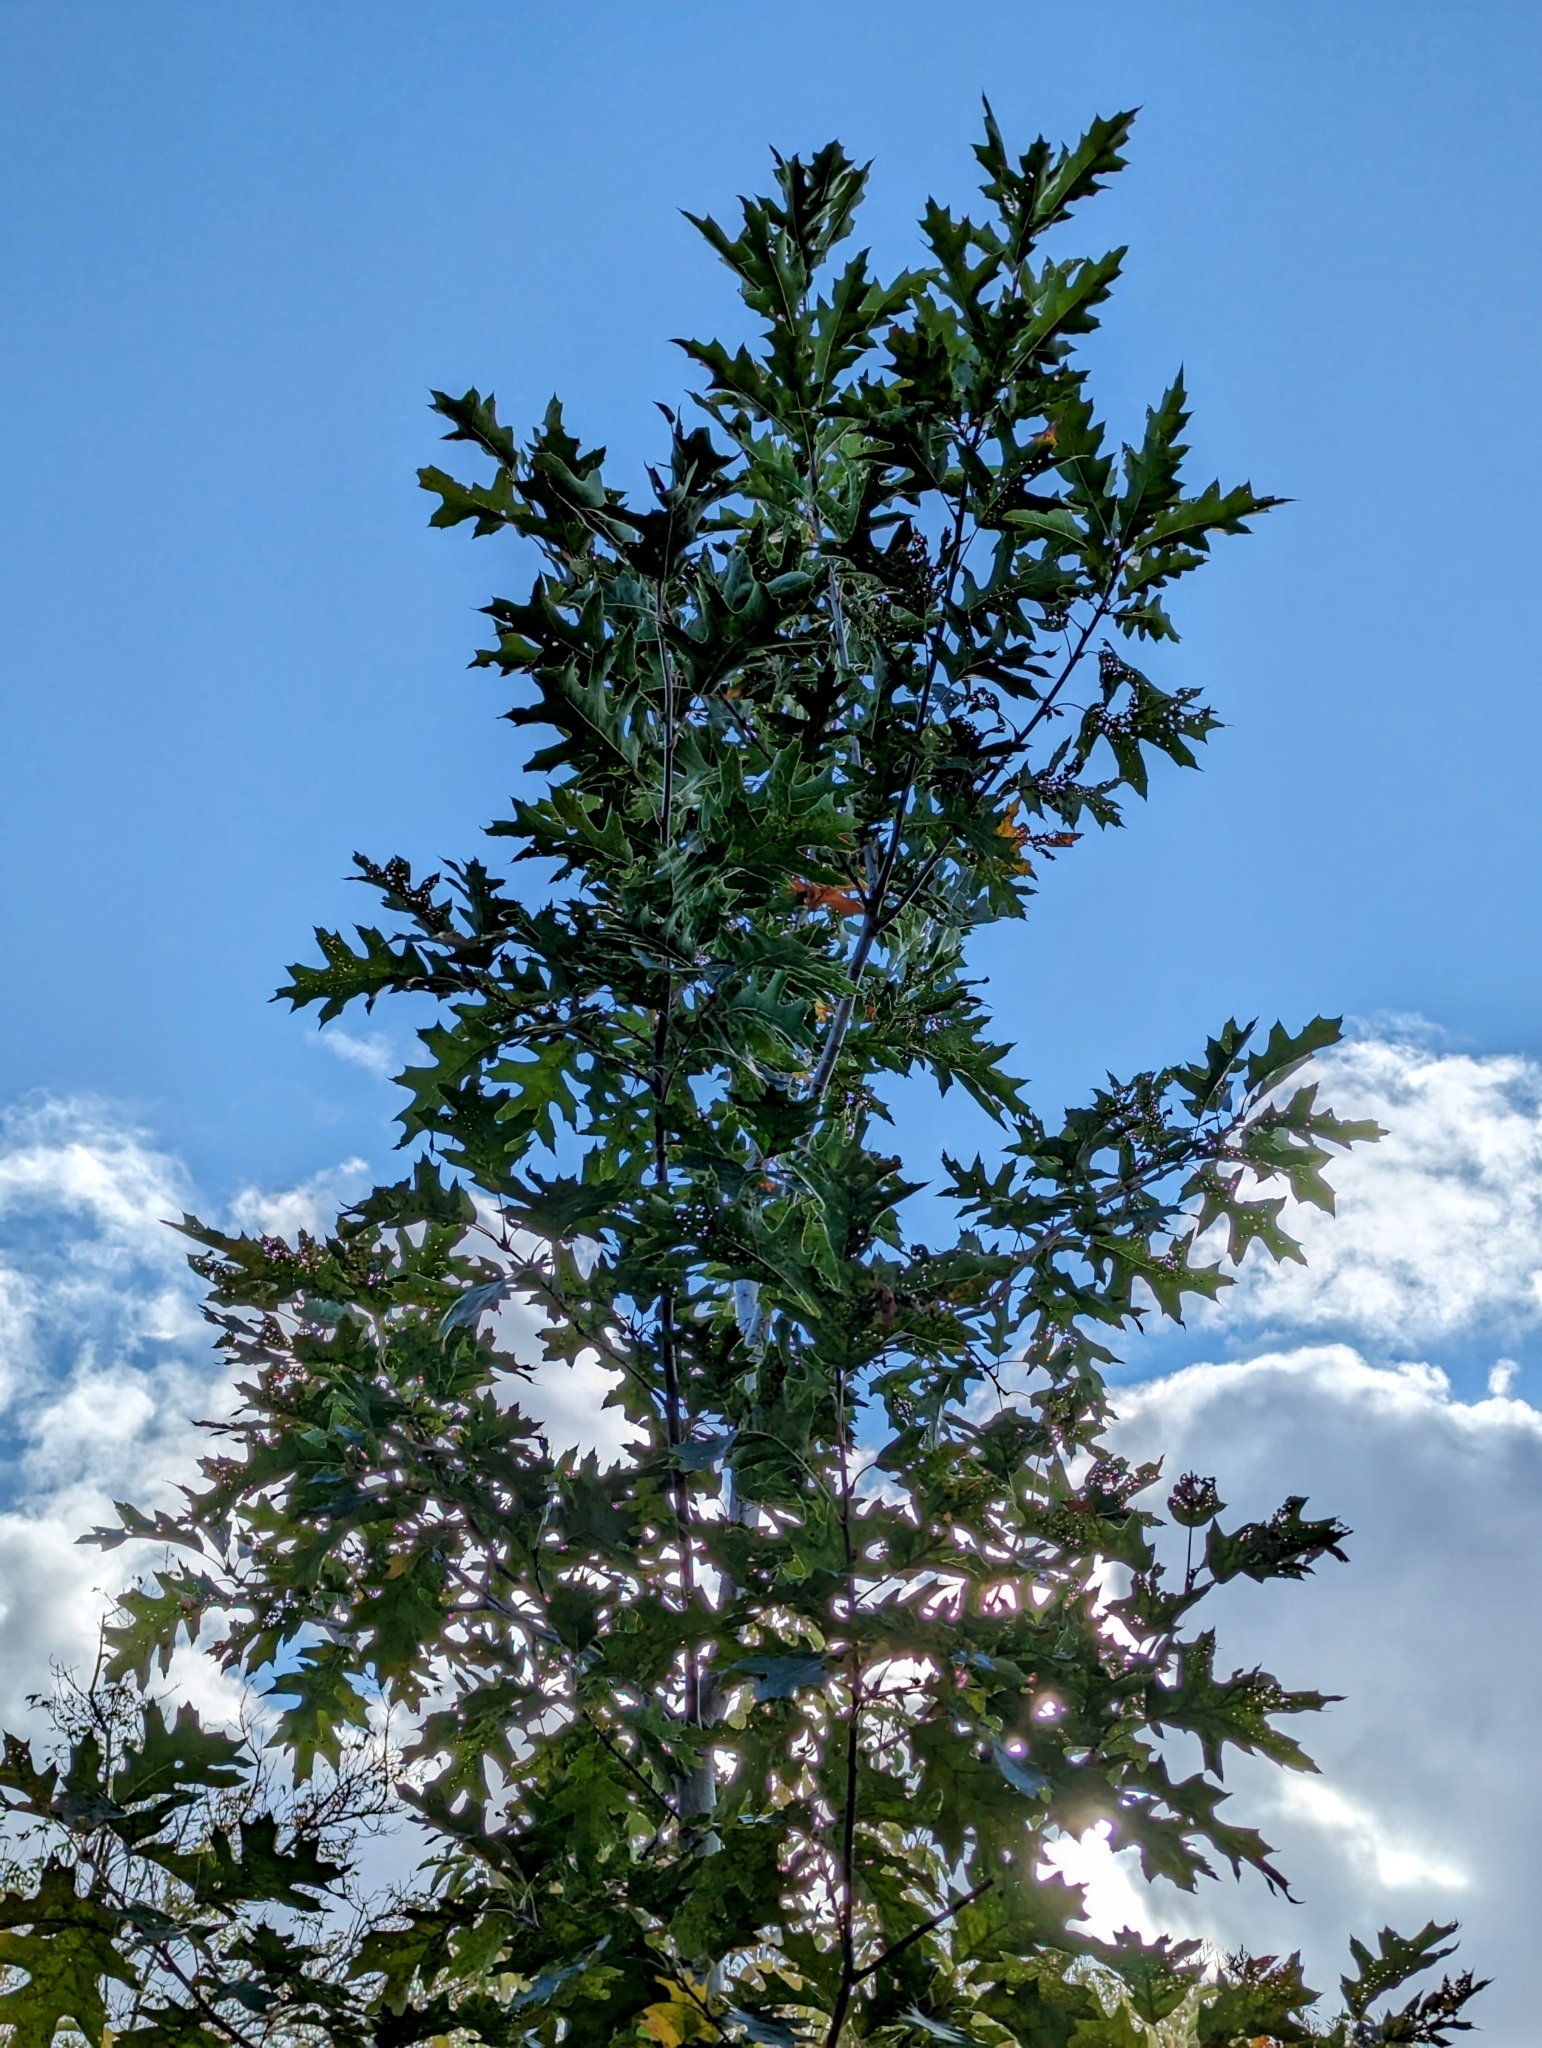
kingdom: Plantae
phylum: Tracheophyta
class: Magnoliopsida
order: Fagales
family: Fagaceae
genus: Quercus
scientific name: Quercus rubra
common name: Red oak
